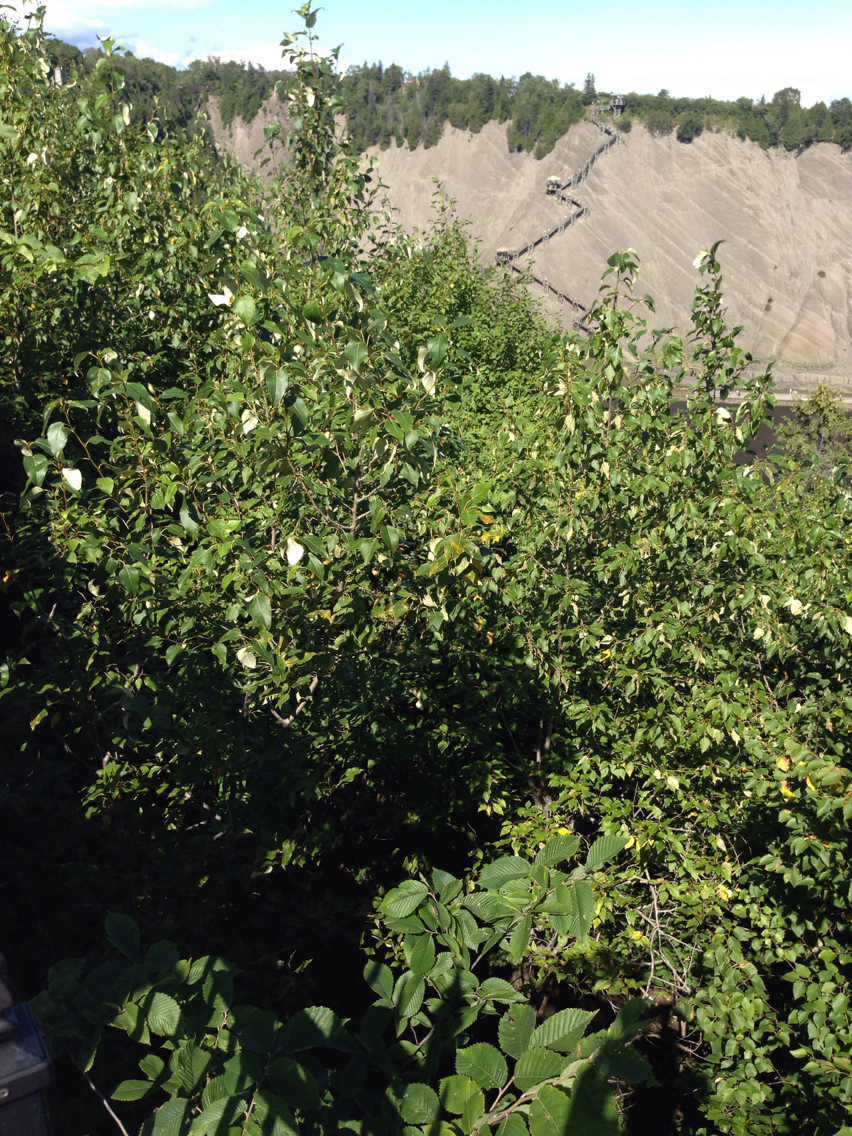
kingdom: Plantae
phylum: Tracheophyta
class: Magnoliopsida
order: Malpighiales
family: Salicaceae
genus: Populus
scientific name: Populus balsamifera
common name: Balsam poplar
